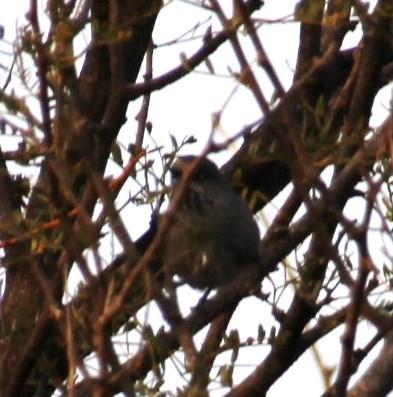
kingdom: Animalia
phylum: Chordata
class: Aves
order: Passeriformes
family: Sylviidae
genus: Curruca
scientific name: Curruca subcoerulea
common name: Chestnut-vented warbler
